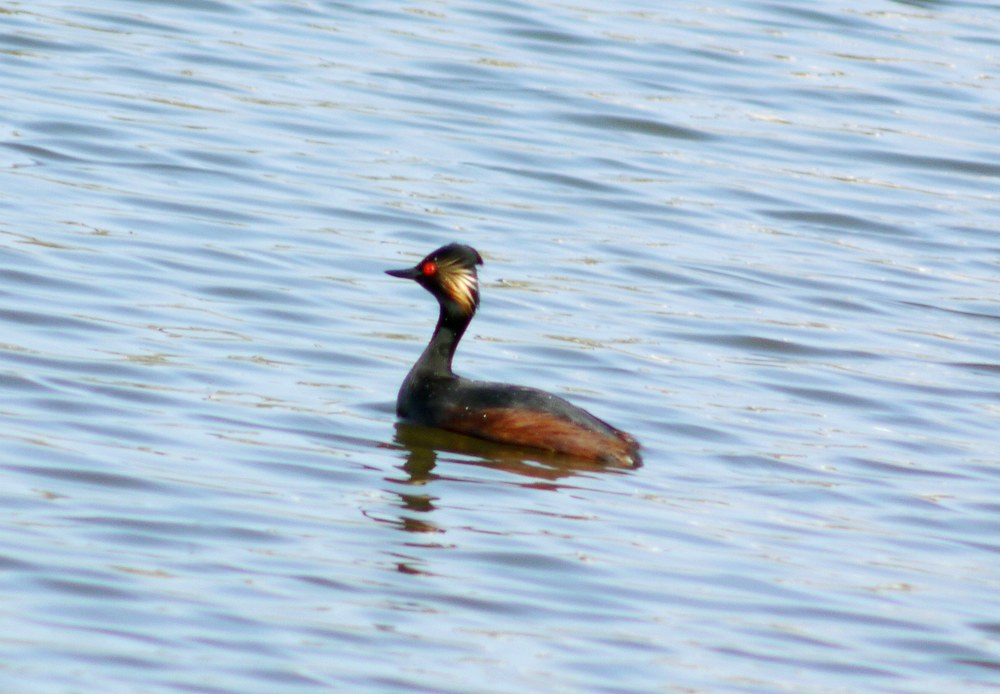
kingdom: Animalia
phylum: Chordata
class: Aves
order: Podicipediformes
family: Podicipedidae
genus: Podiceps
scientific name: Podiceps nigricollis
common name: Black-necked grebe
